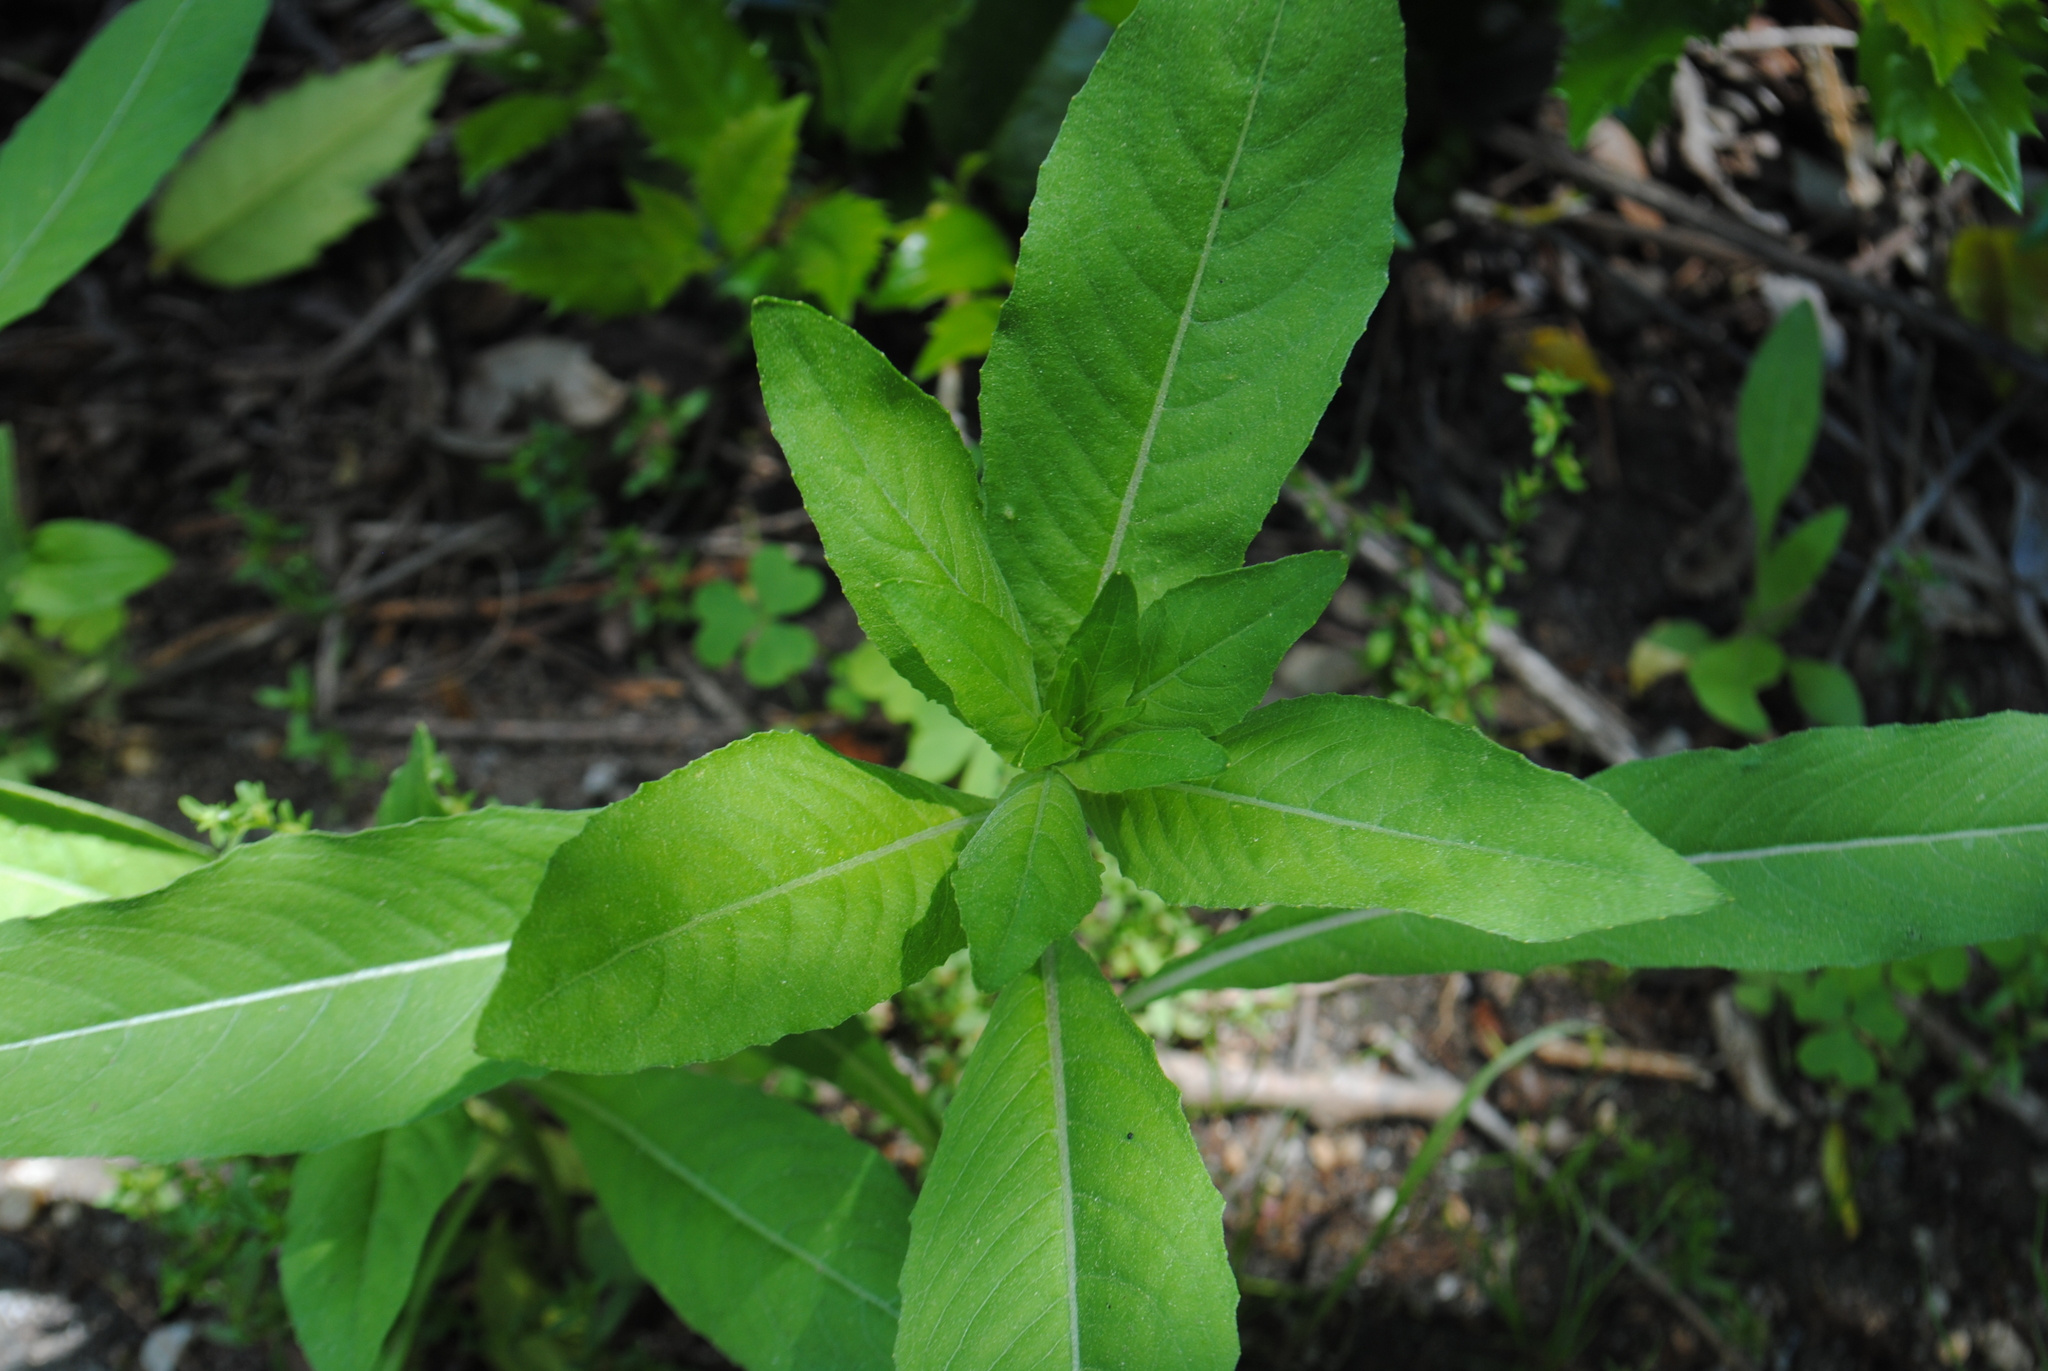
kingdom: Plantae
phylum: Tracheophyta
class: Magnoliopsida
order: Myrtales
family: Onagraceae
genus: Oenothera
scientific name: Oenothera biennis
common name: Common evening-primrose
